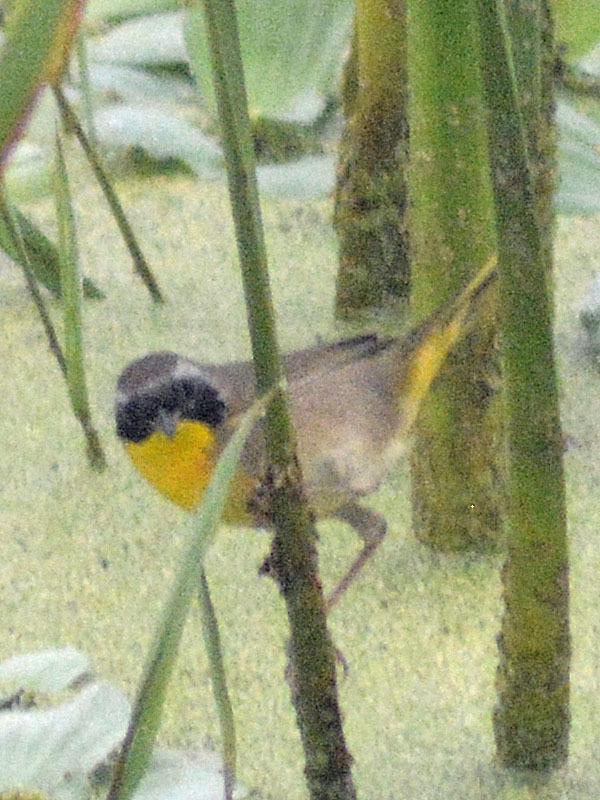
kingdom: Animalia
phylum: Chordata
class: Aves
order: Passeriformes
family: Parulidae
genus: Geothlypis
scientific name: Geothlypis trichas
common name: Common yellowthroat
